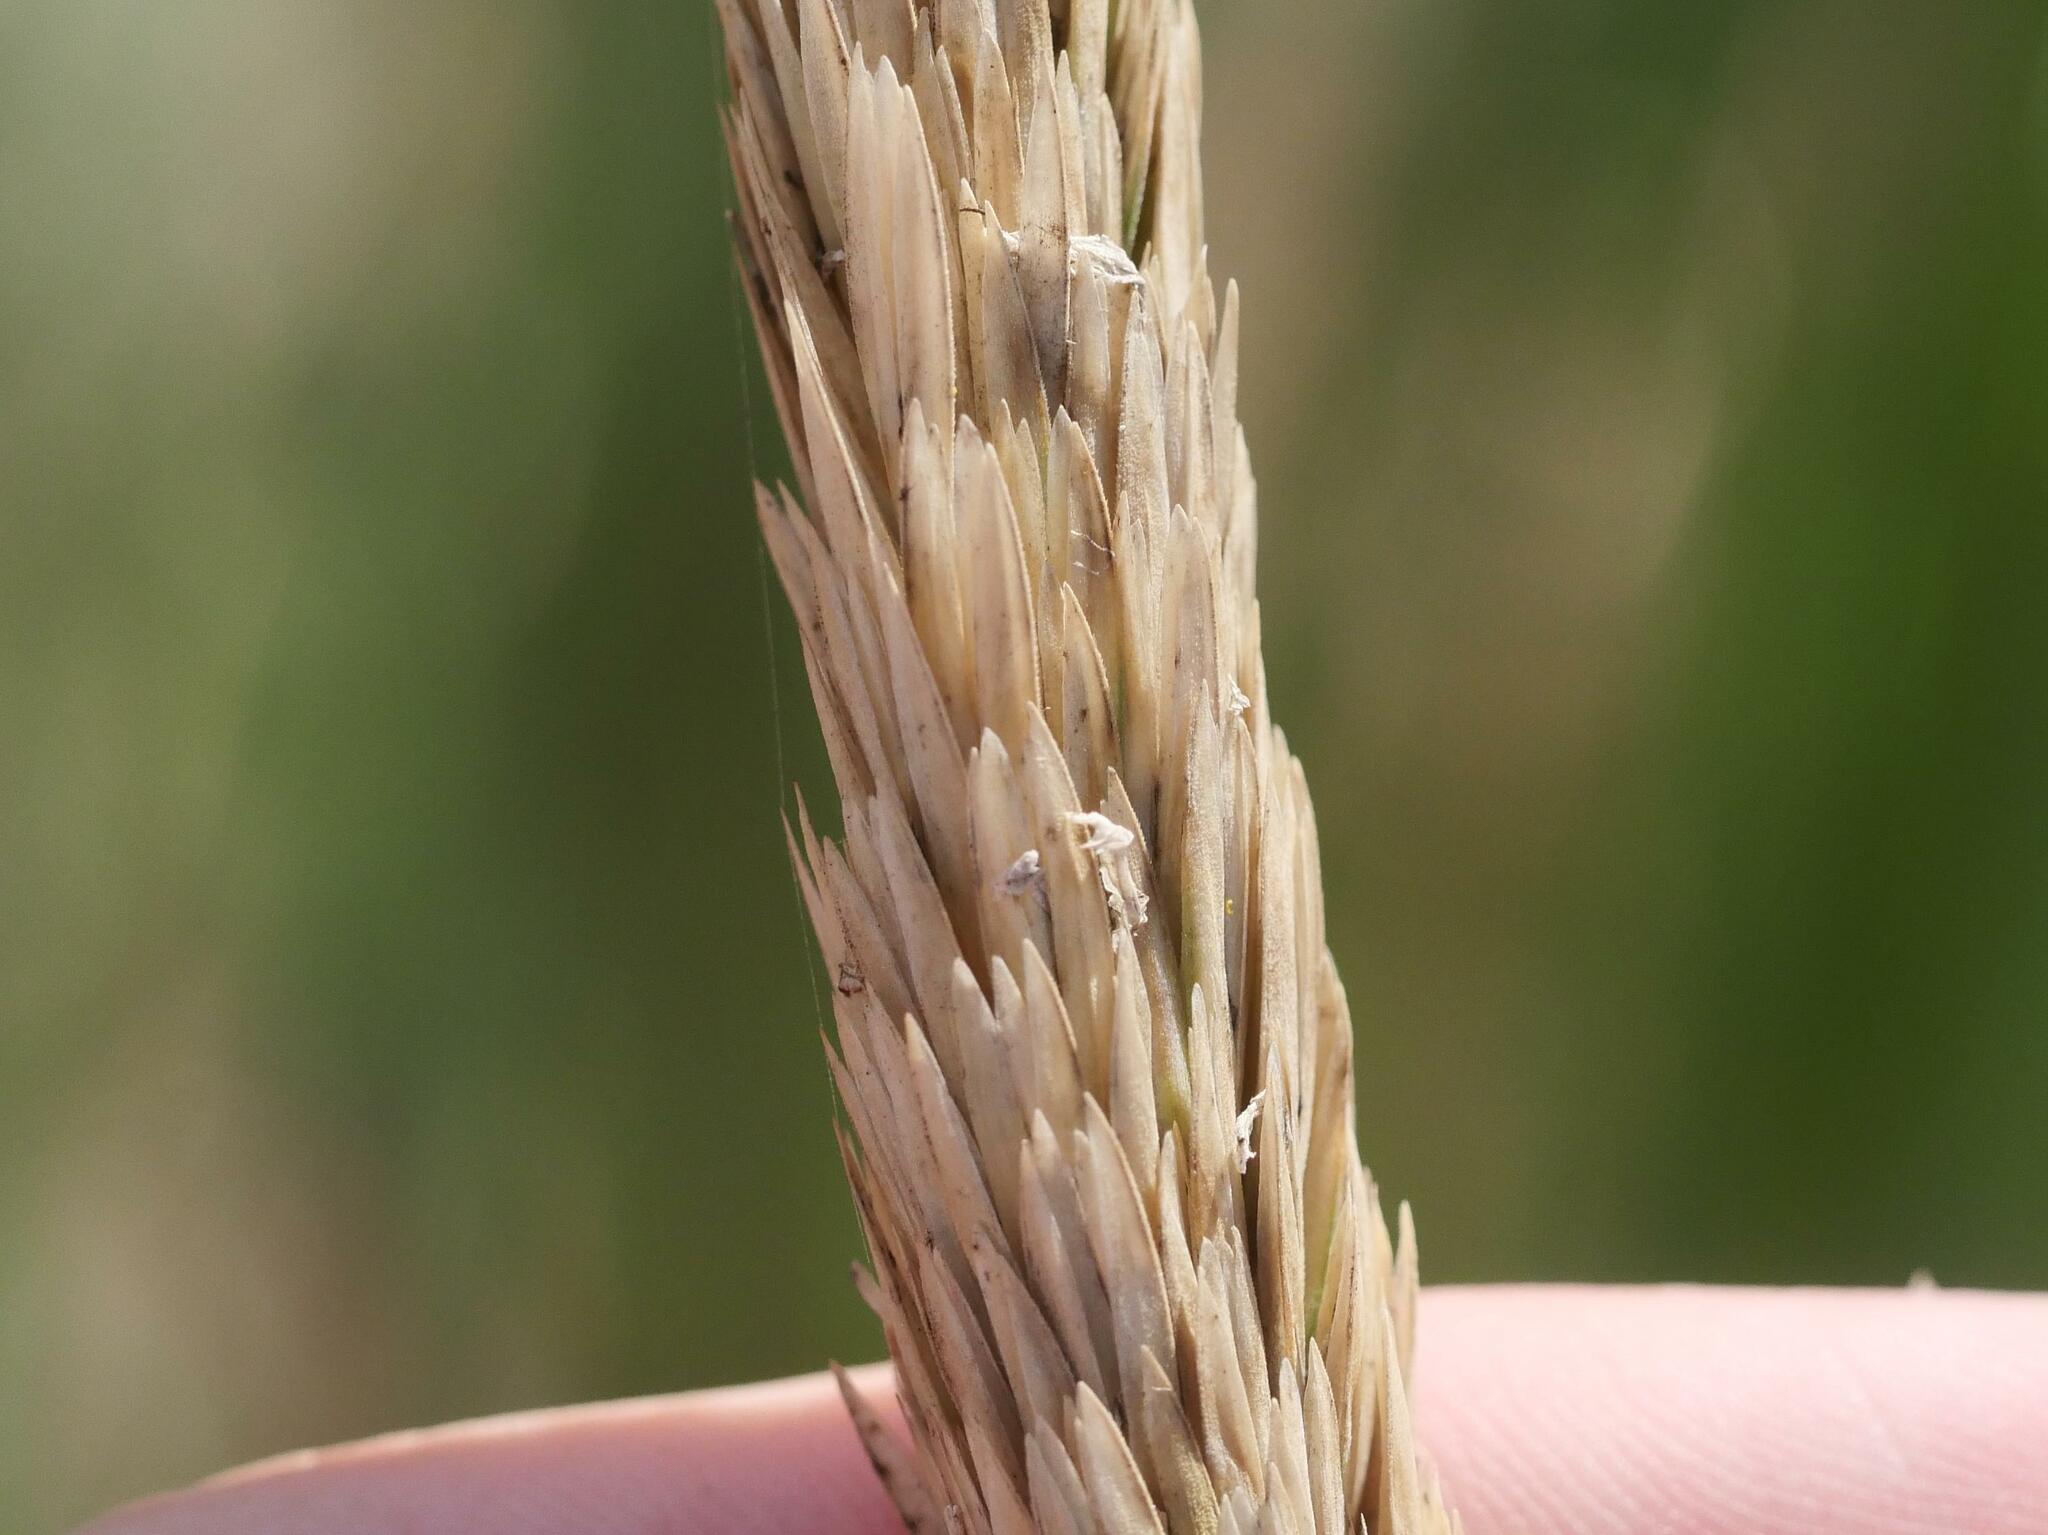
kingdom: Plantae
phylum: Tracheophyta
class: Liliopsida
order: Poales
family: Poaceae
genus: Calamagrostis
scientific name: Calamagrostis breviligulata
